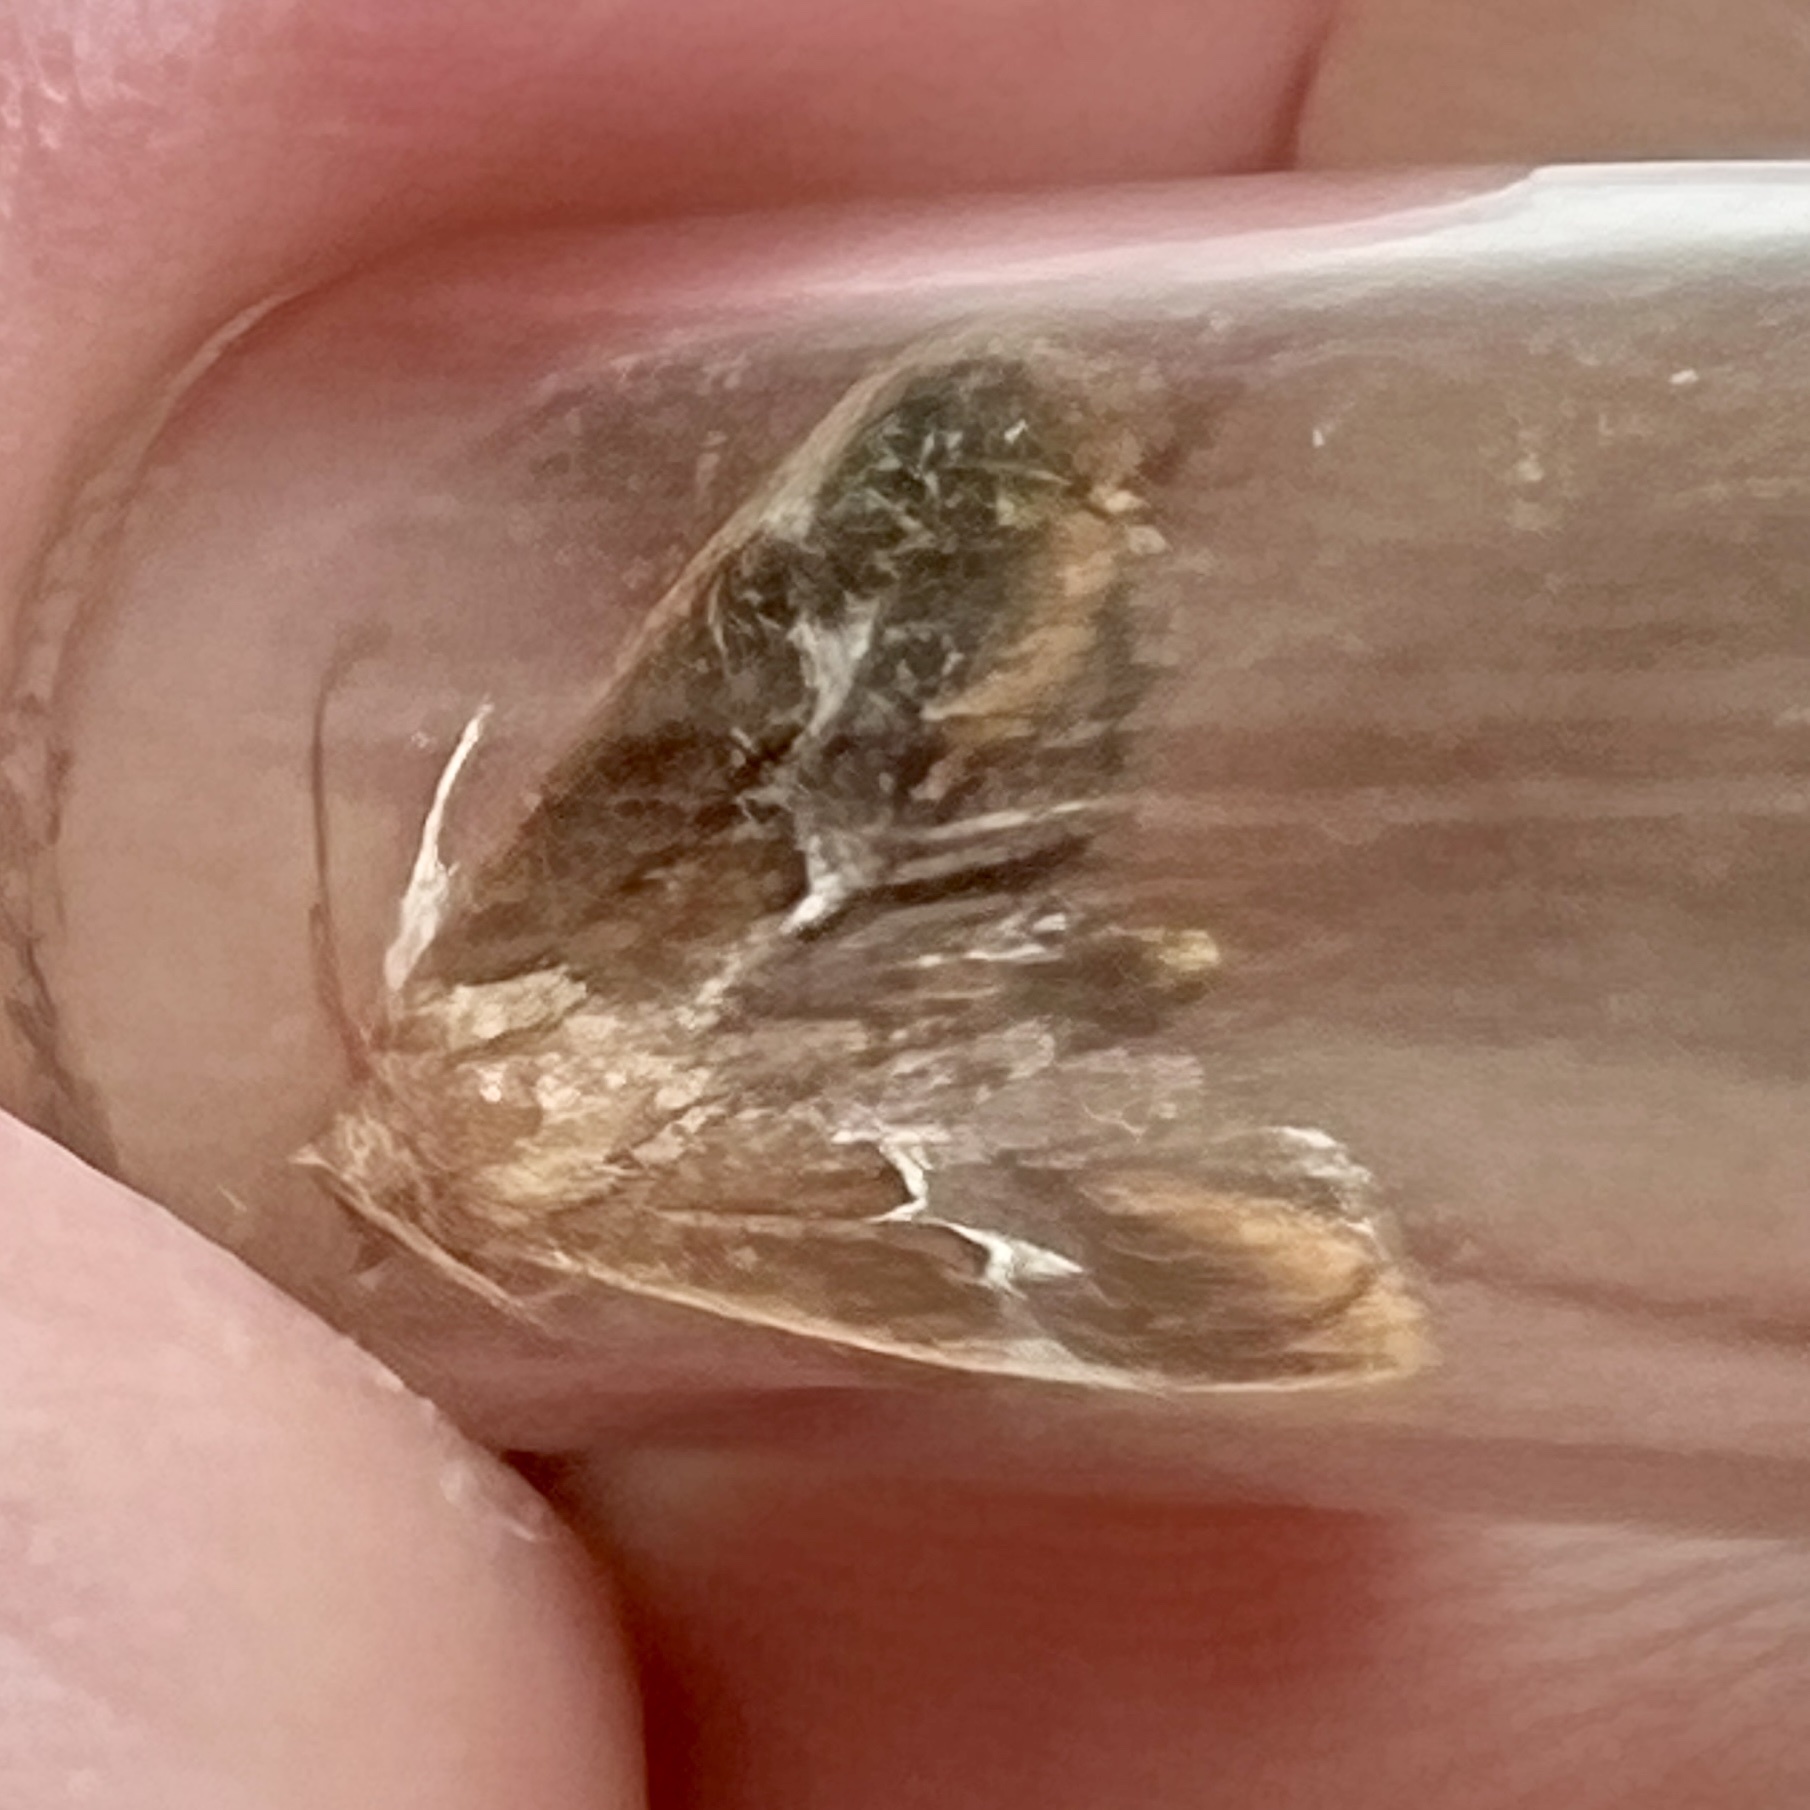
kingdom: Animalia
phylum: Arthropoda
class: Insecta
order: Lepidoptera
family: Limacodidae
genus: Lithacodes
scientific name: Lithacodes fasciola
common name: Yellow-shouldered slug moth
